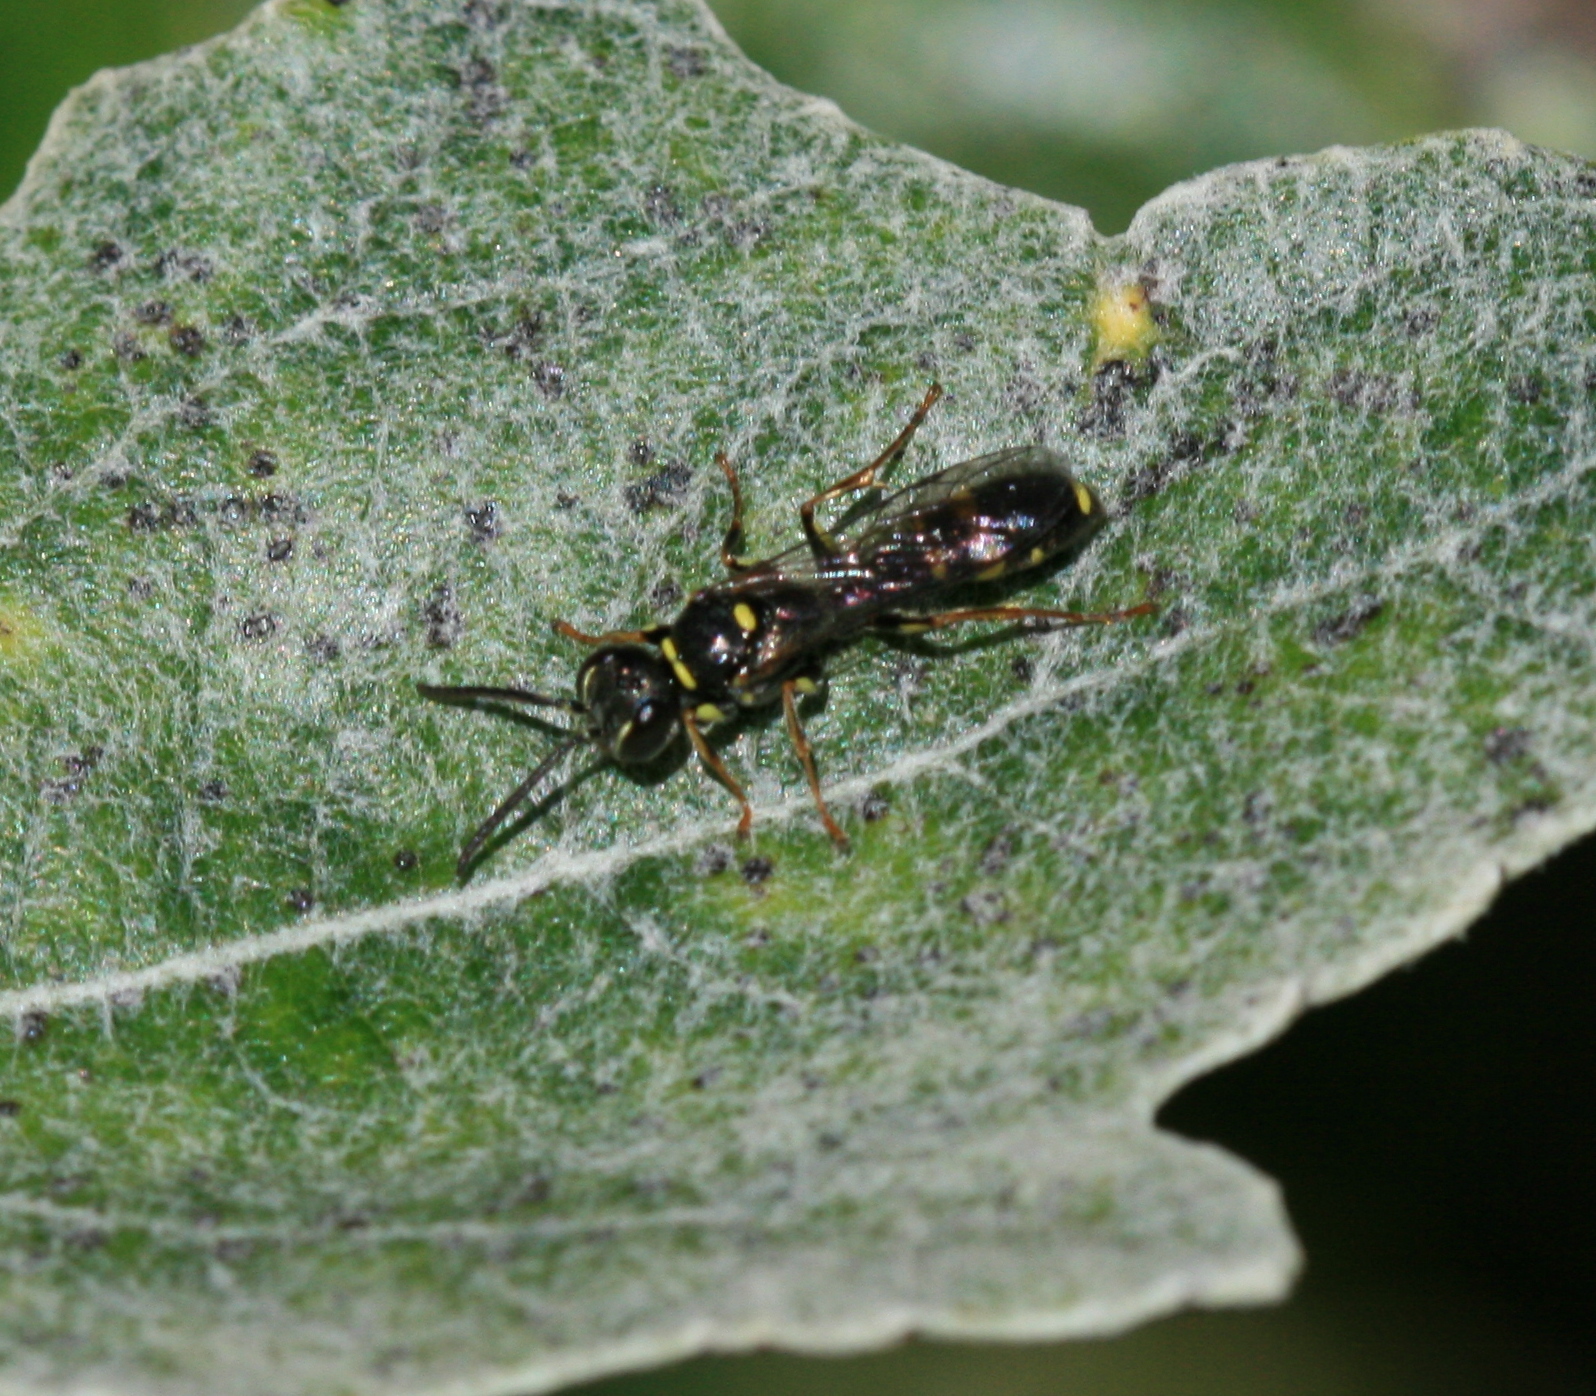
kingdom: Animalia
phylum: Arthropoda
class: Insecta
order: Hymenoptera
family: Crabronidae
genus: Mellinus
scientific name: Mellinus arvensis
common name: Field digger wasp
